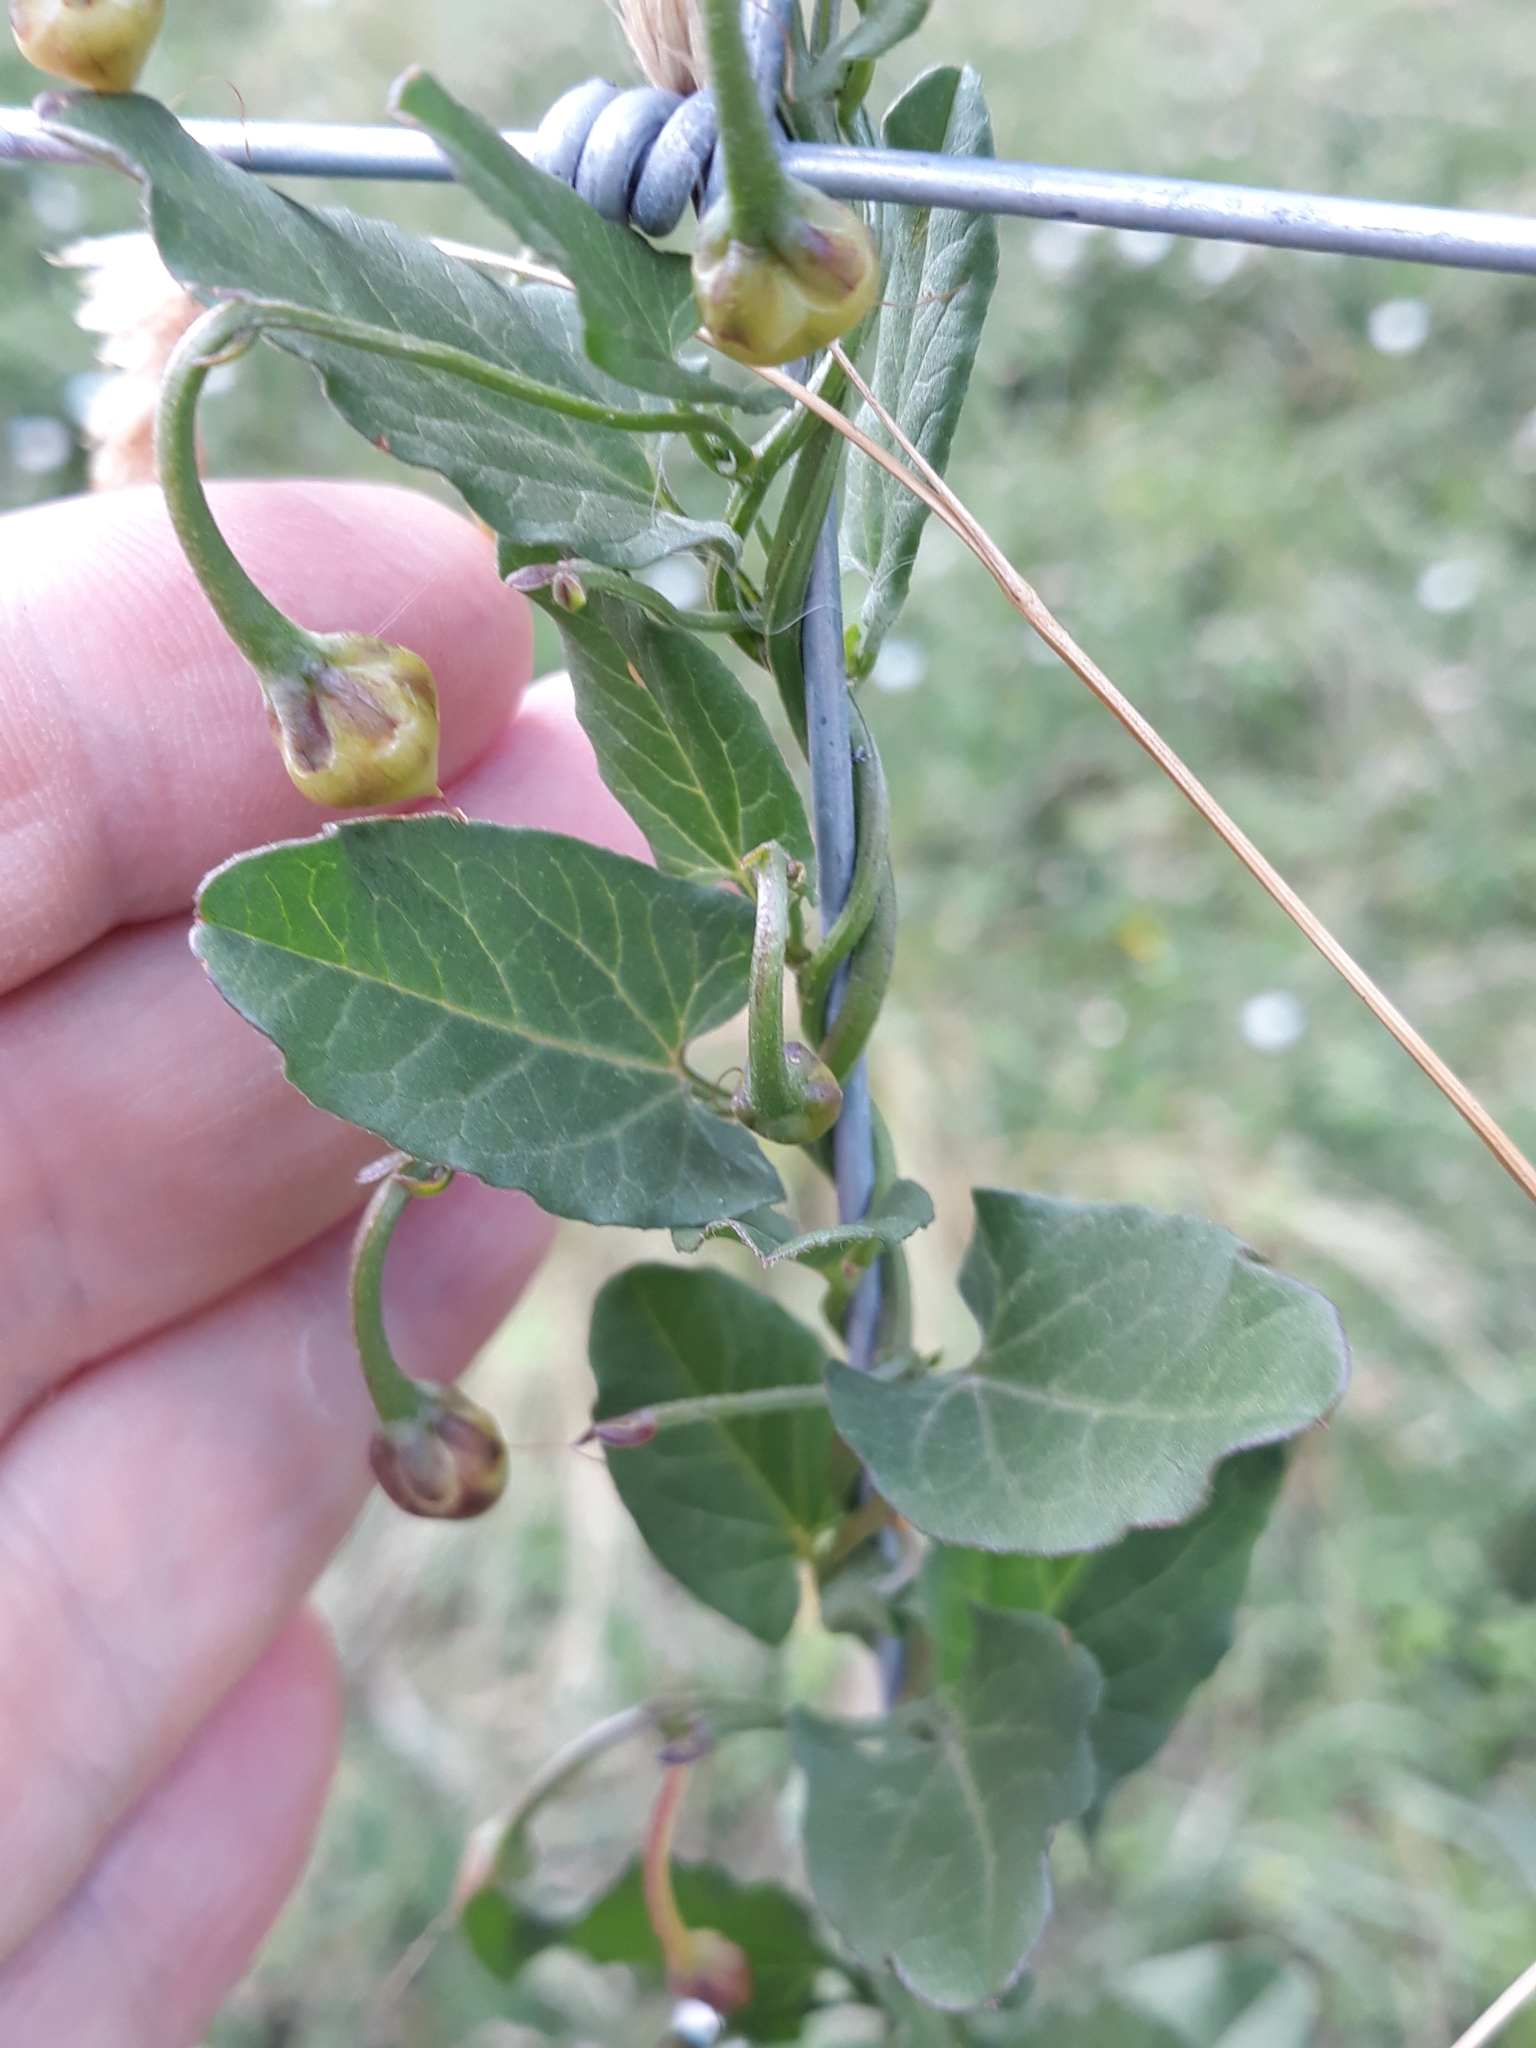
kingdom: Plantae
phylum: Tracheophyta
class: Magnoliopsida
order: Solanales
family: Convolvulaceae
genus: Convolvulus
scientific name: Convolvulus arvensis
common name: Field bindweed
